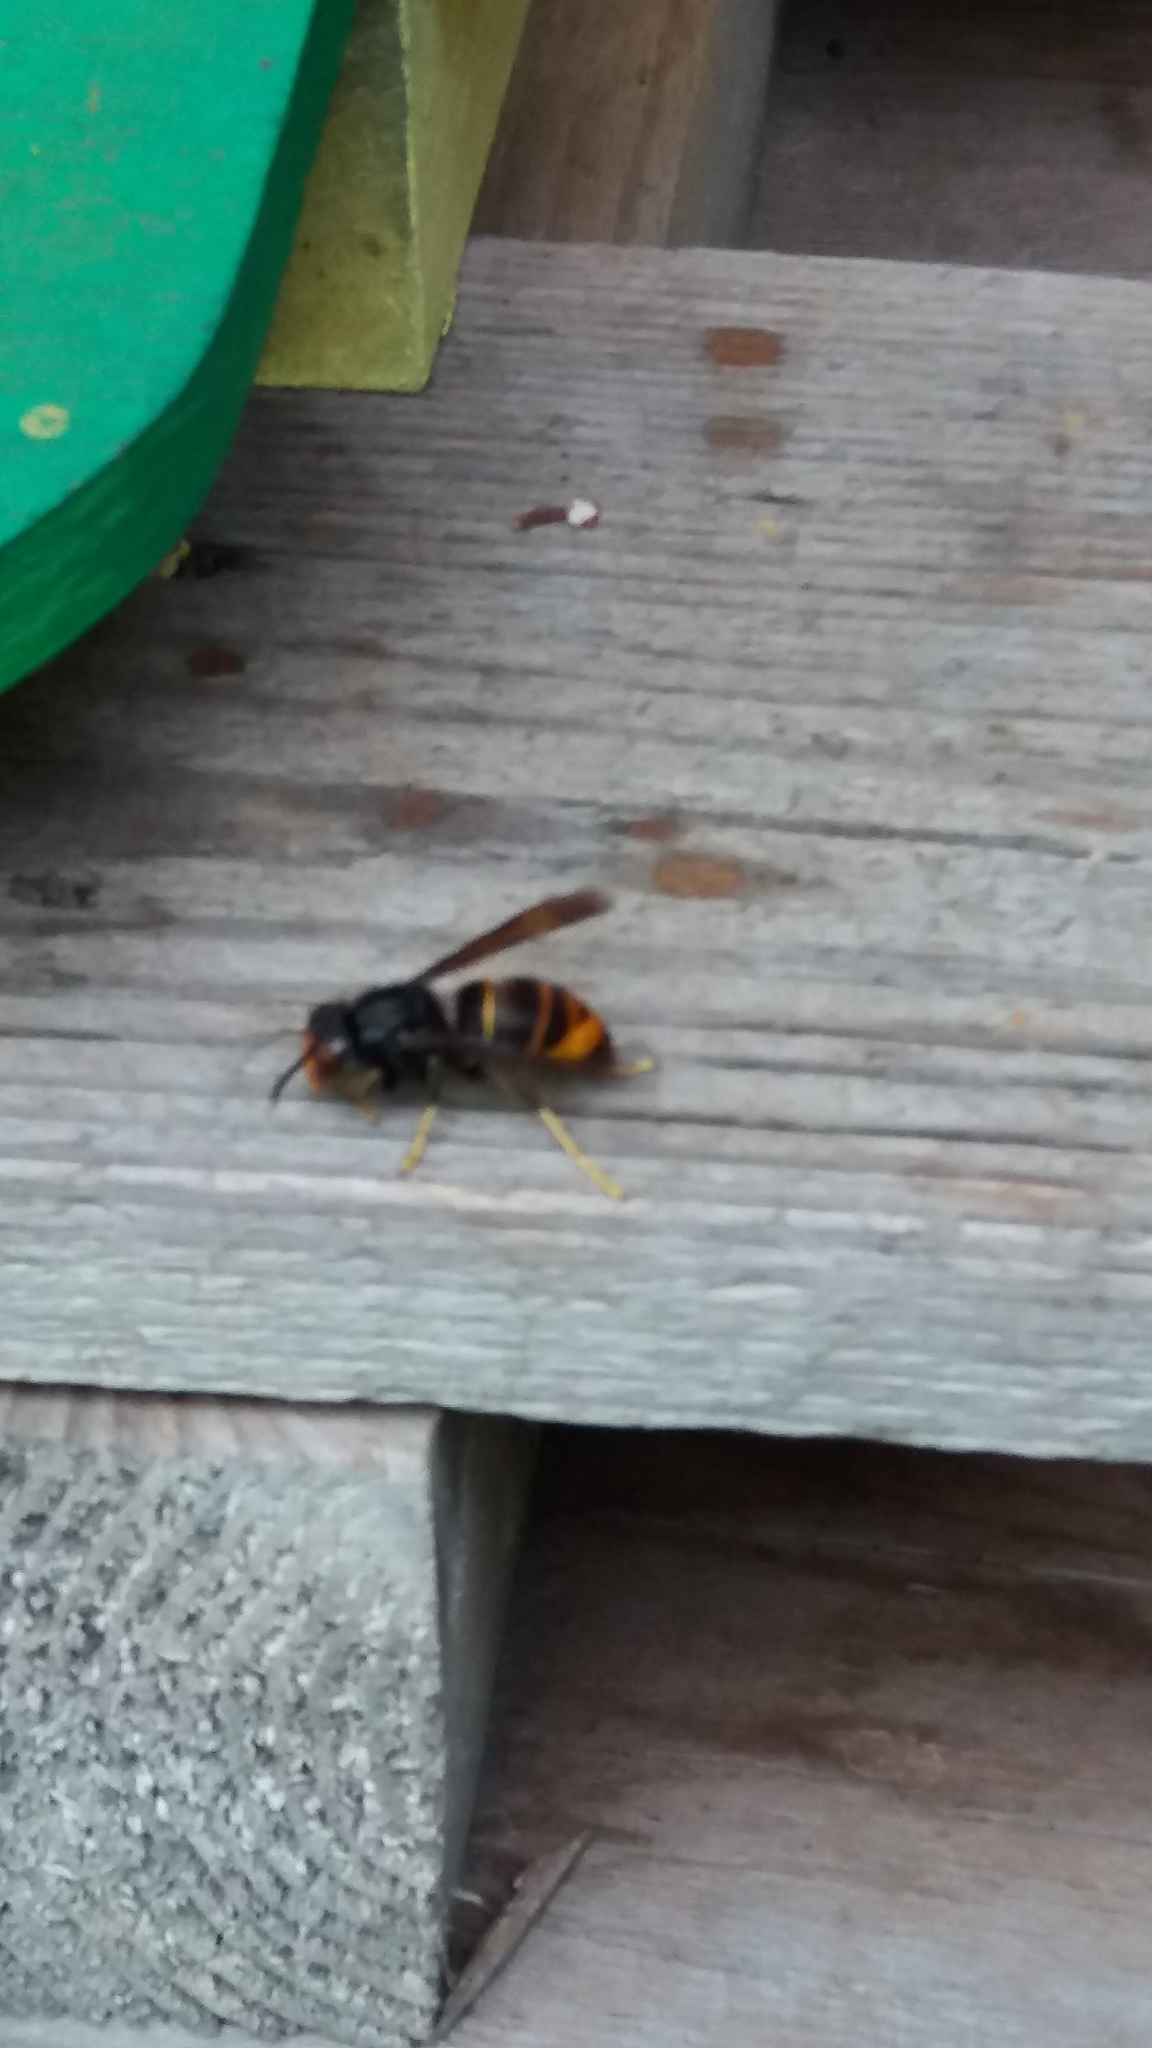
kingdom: Animalia
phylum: Arthropoda
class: Insecta
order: Hymenoptera
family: Vespidae
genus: Vespa
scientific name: Vespa velutina
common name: Asian hornet
